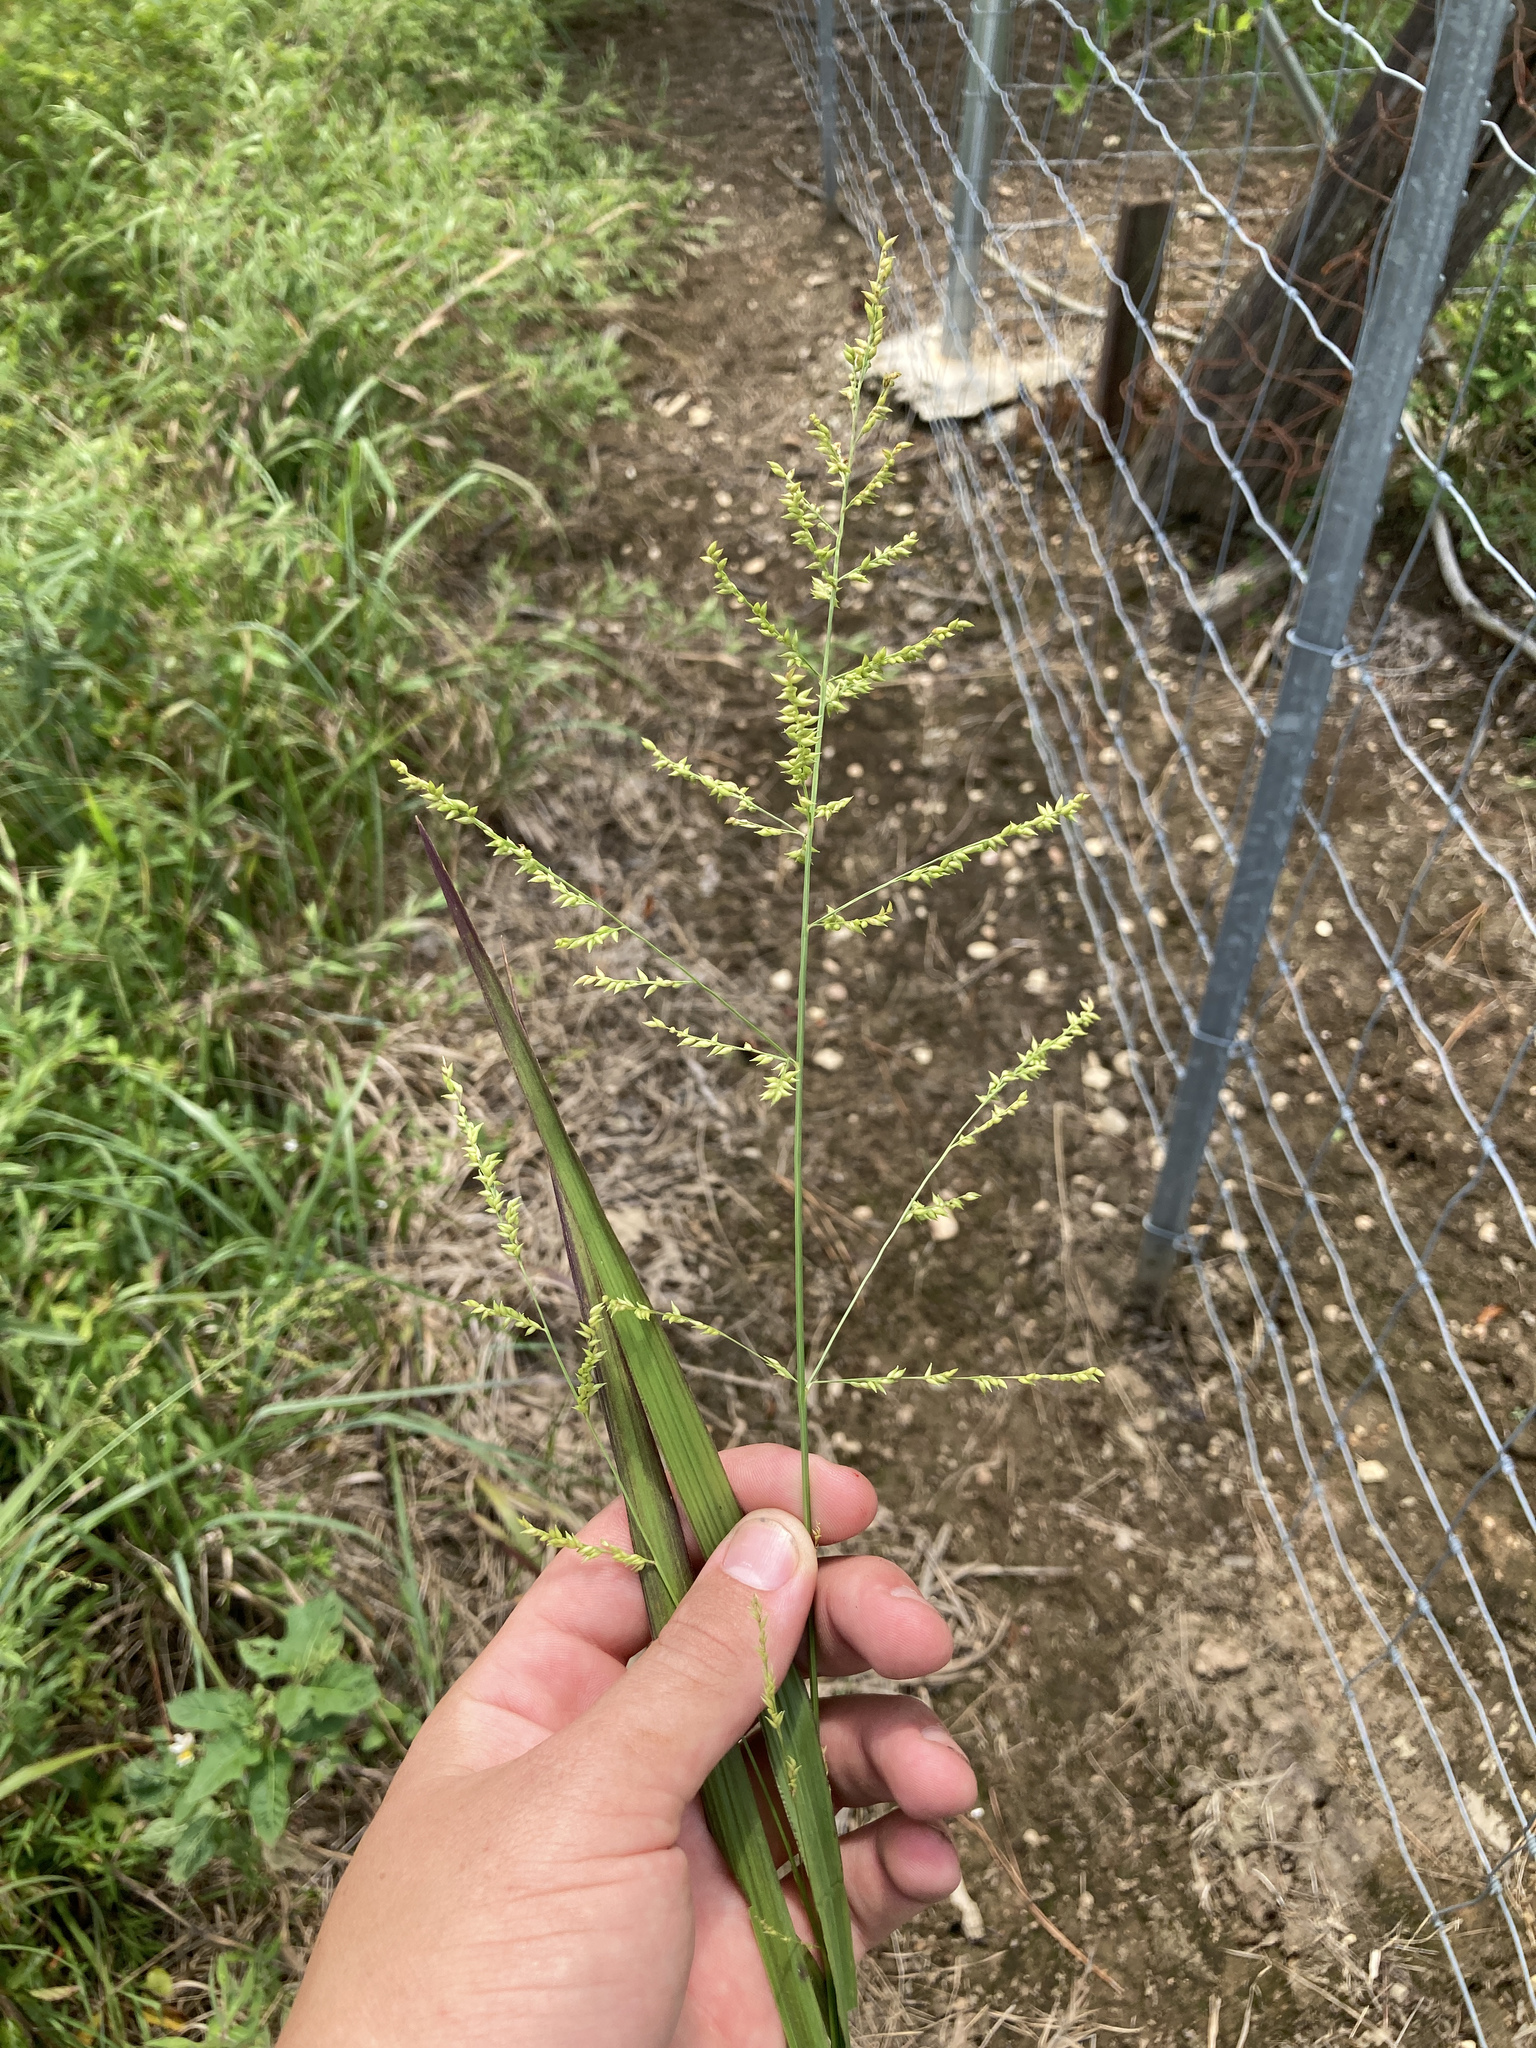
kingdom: Plantae
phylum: Tracheophyta
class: Liliopsida
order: Poales
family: Poaceae
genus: Coleataenia
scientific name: Coleataenia anceps
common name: Beaked panic grass
